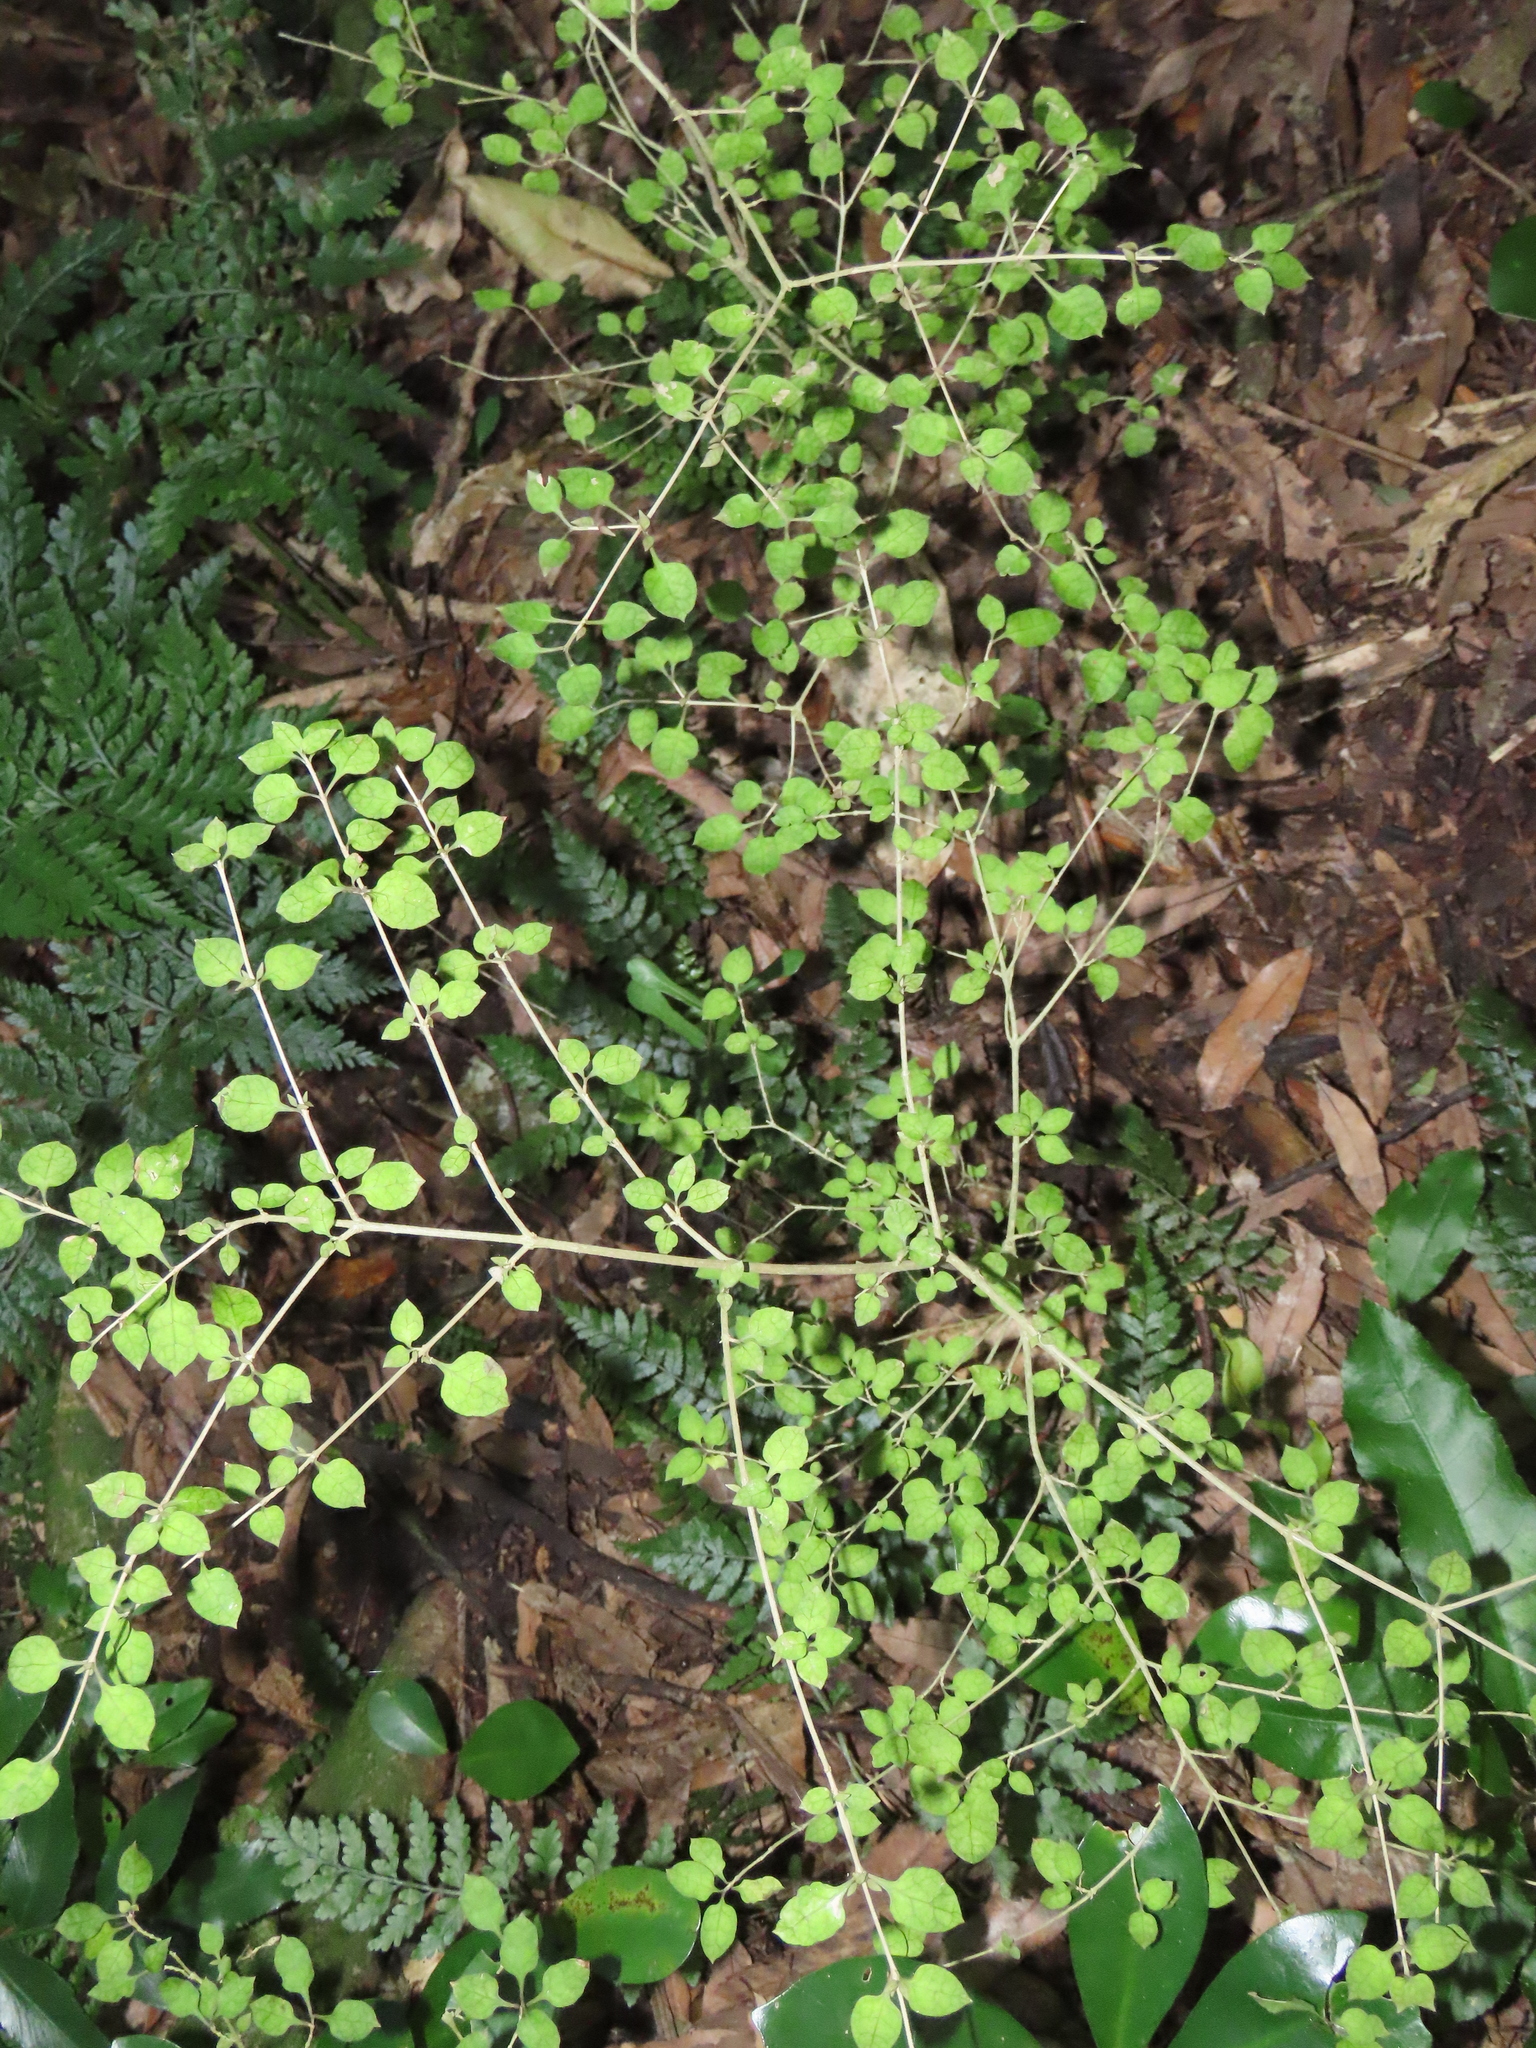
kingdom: Plantae
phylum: Tracheophyta
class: Magnoliopsida
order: Gentianales
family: Rubiaceae
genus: Coprosma
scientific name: Coprosma areolata
